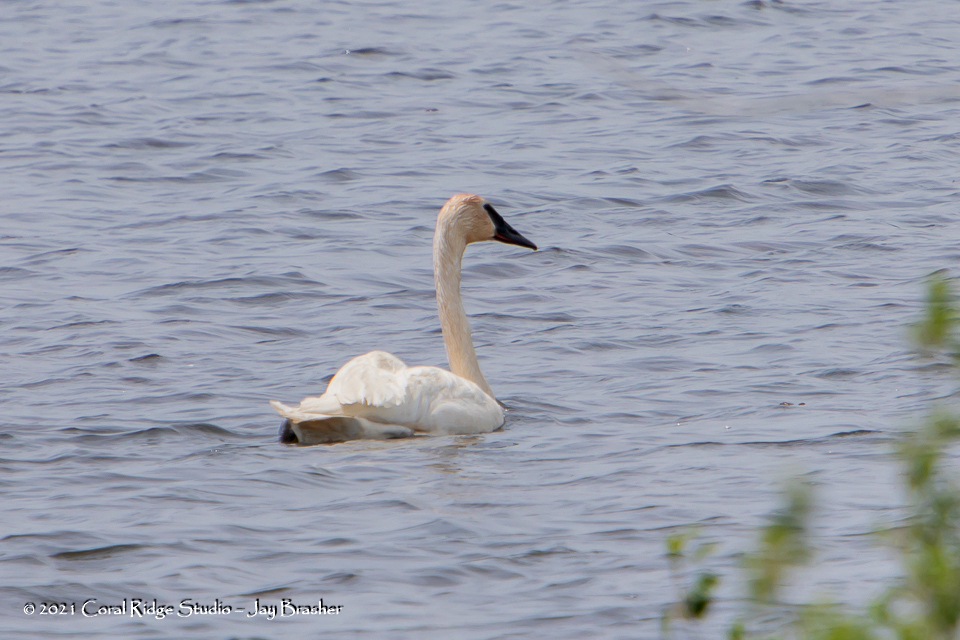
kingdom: Animalia
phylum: Chordata
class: Aves
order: Anseriformes
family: Anatidae
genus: Cygnus
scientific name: Cygnus buccinator
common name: Trumpeter swan
